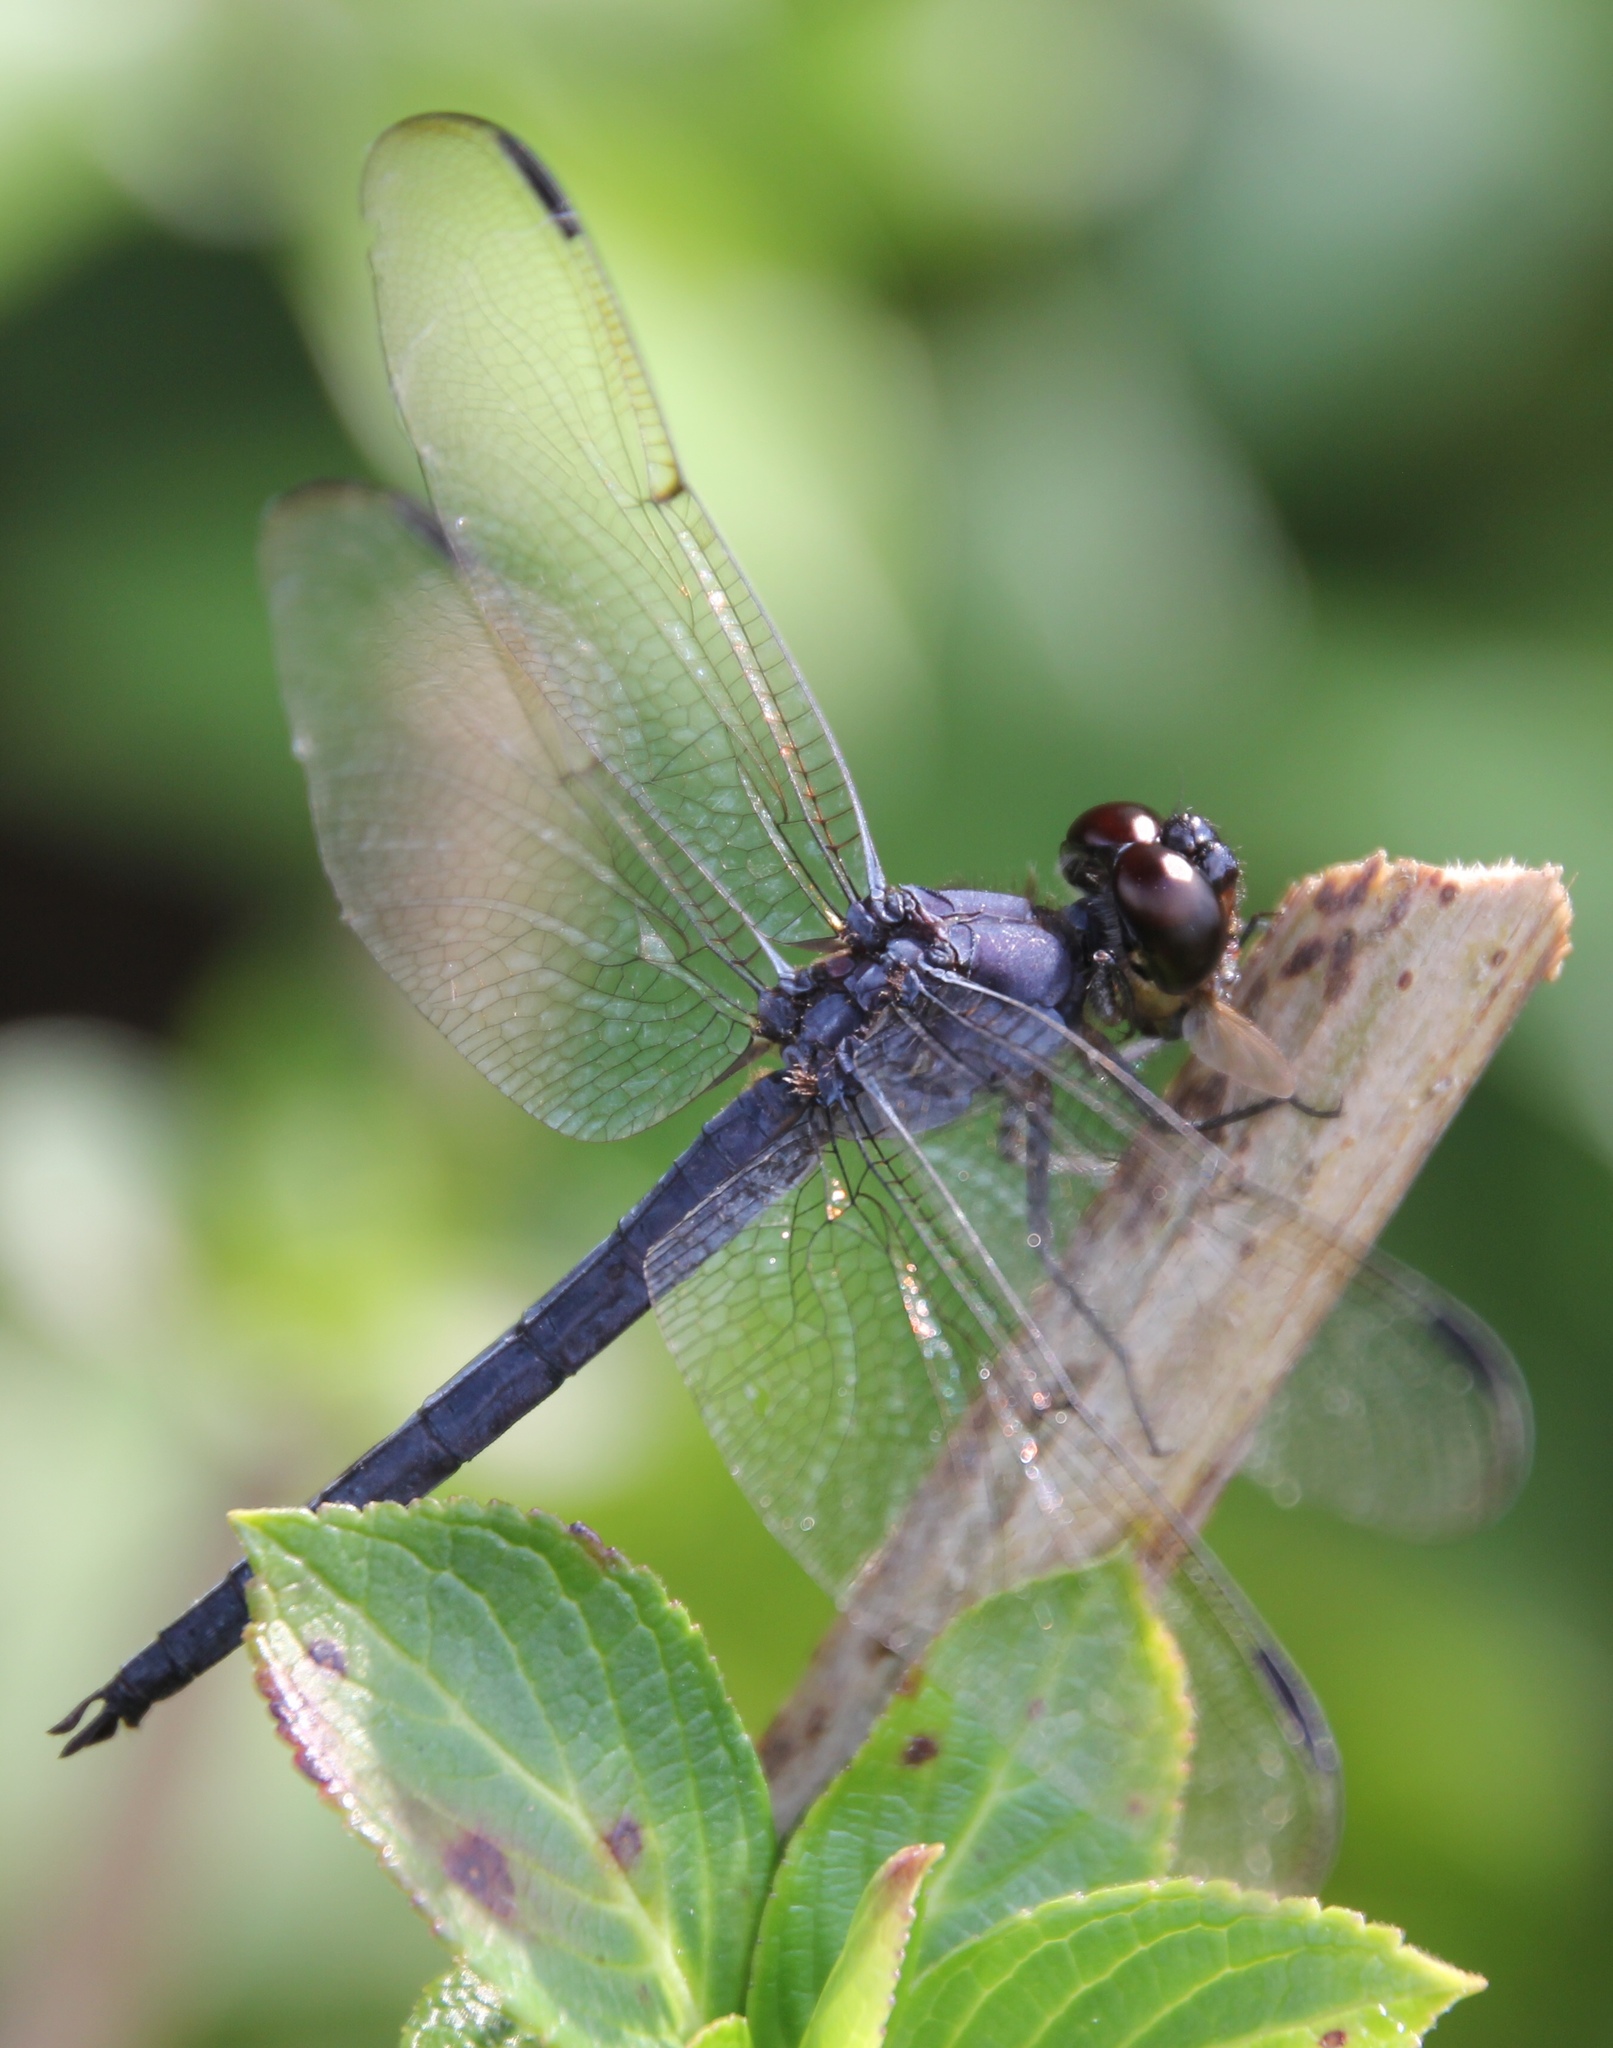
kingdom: Animalia
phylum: Arthropoda
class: Insecta
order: Odonata
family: Libellulidae
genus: Libellula
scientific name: Libellula incesta
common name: Slaty skimmer
